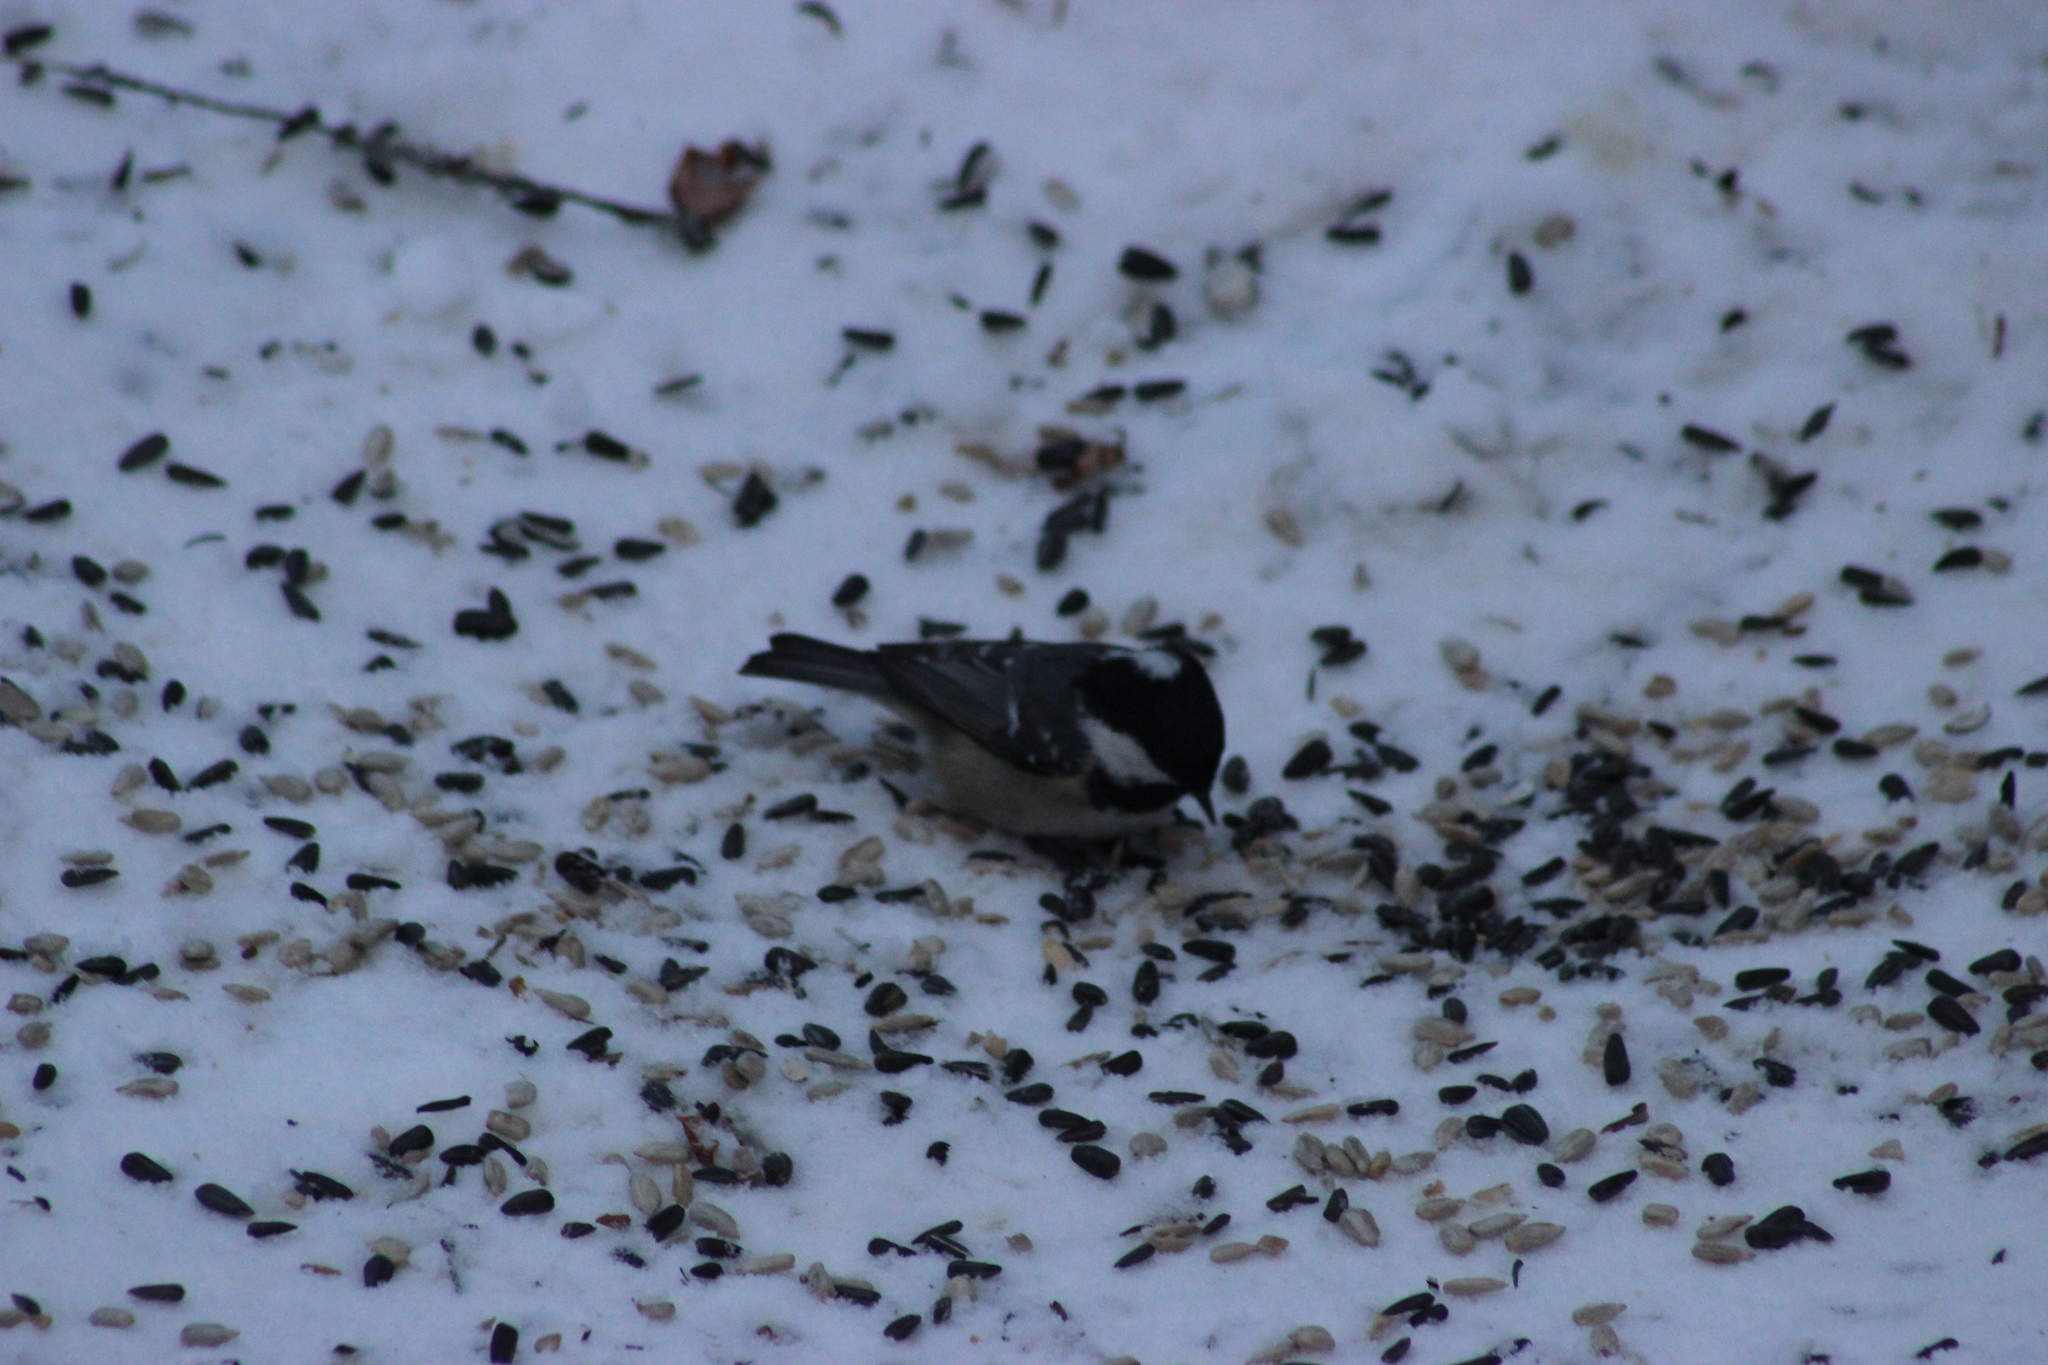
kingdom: Animalia
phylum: Chordata
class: Aves
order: Passeriformes
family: Paridae
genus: Periparus
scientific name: Periparus ater
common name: Coal tit
